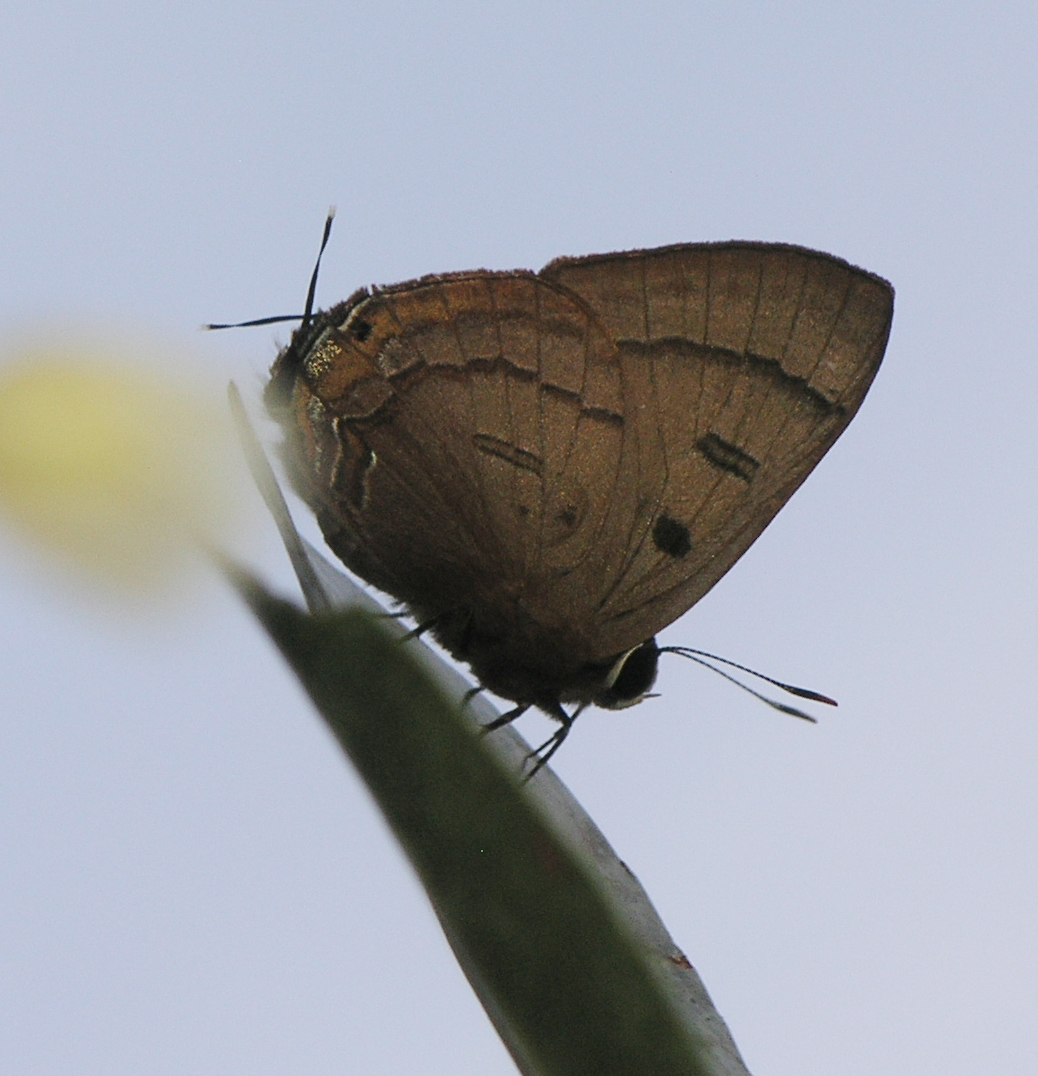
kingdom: Animalia
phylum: Arthropoda
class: Insecta
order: Lepidoptera
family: Lycaenidae
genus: Rapala
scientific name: Rapala pheretima
